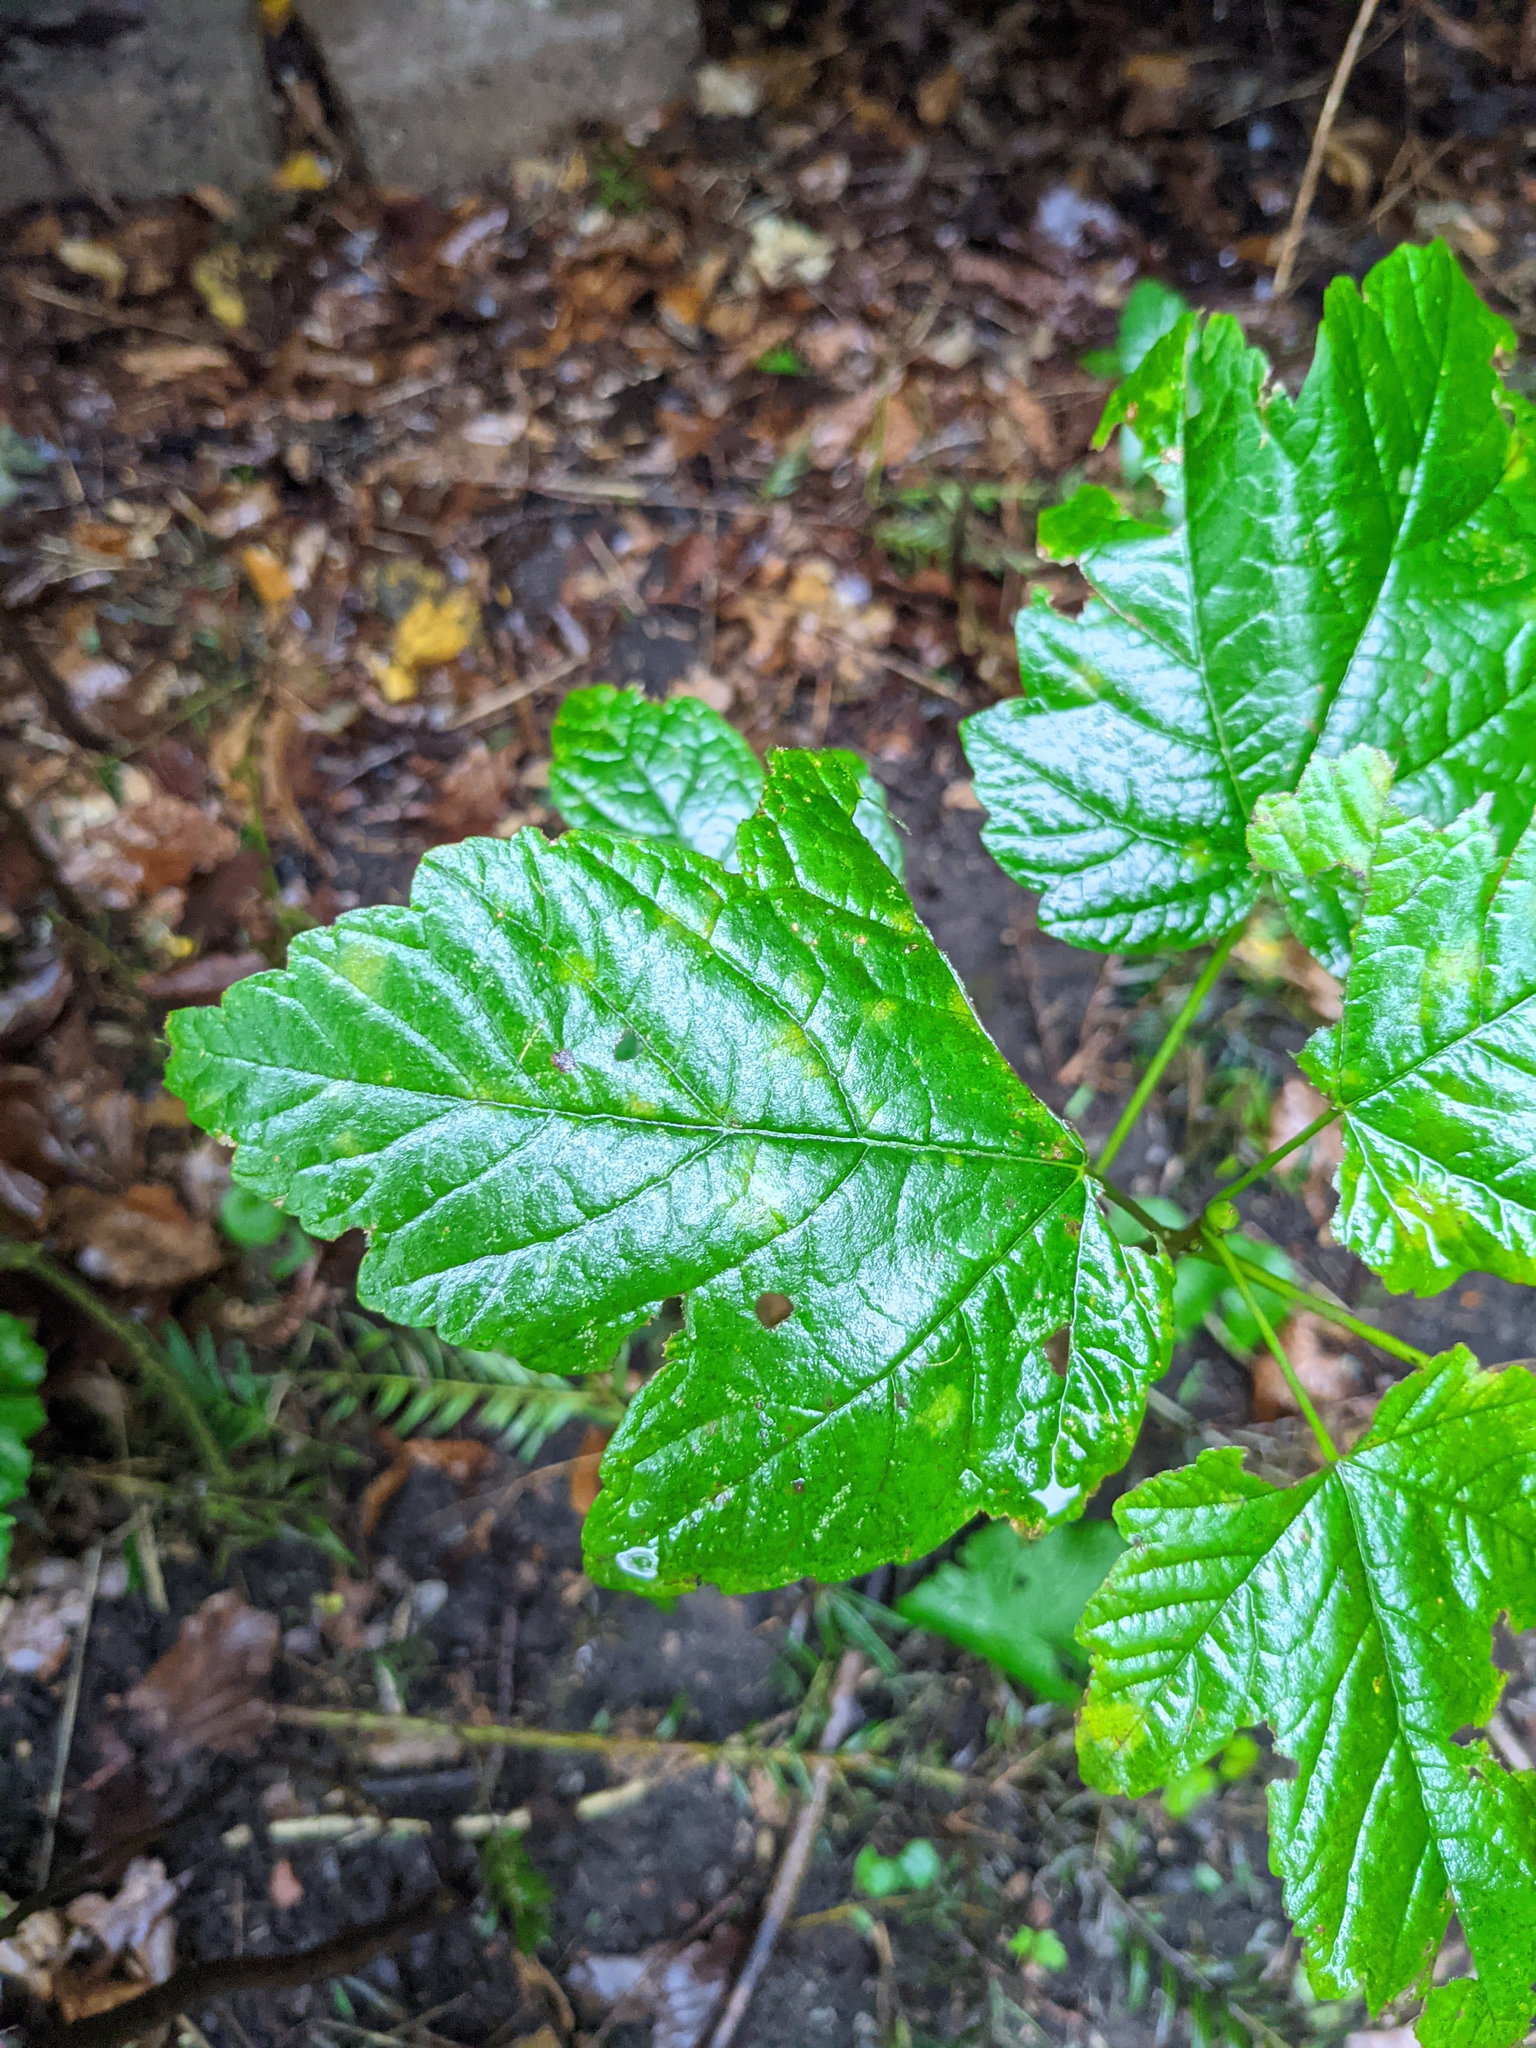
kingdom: Plantae
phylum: Tracheophyta
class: Magnoliopsida
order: Sapindales
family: Sapindaceae
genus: Acer
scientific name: Acer pseudoplatanus
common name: Sycamore
